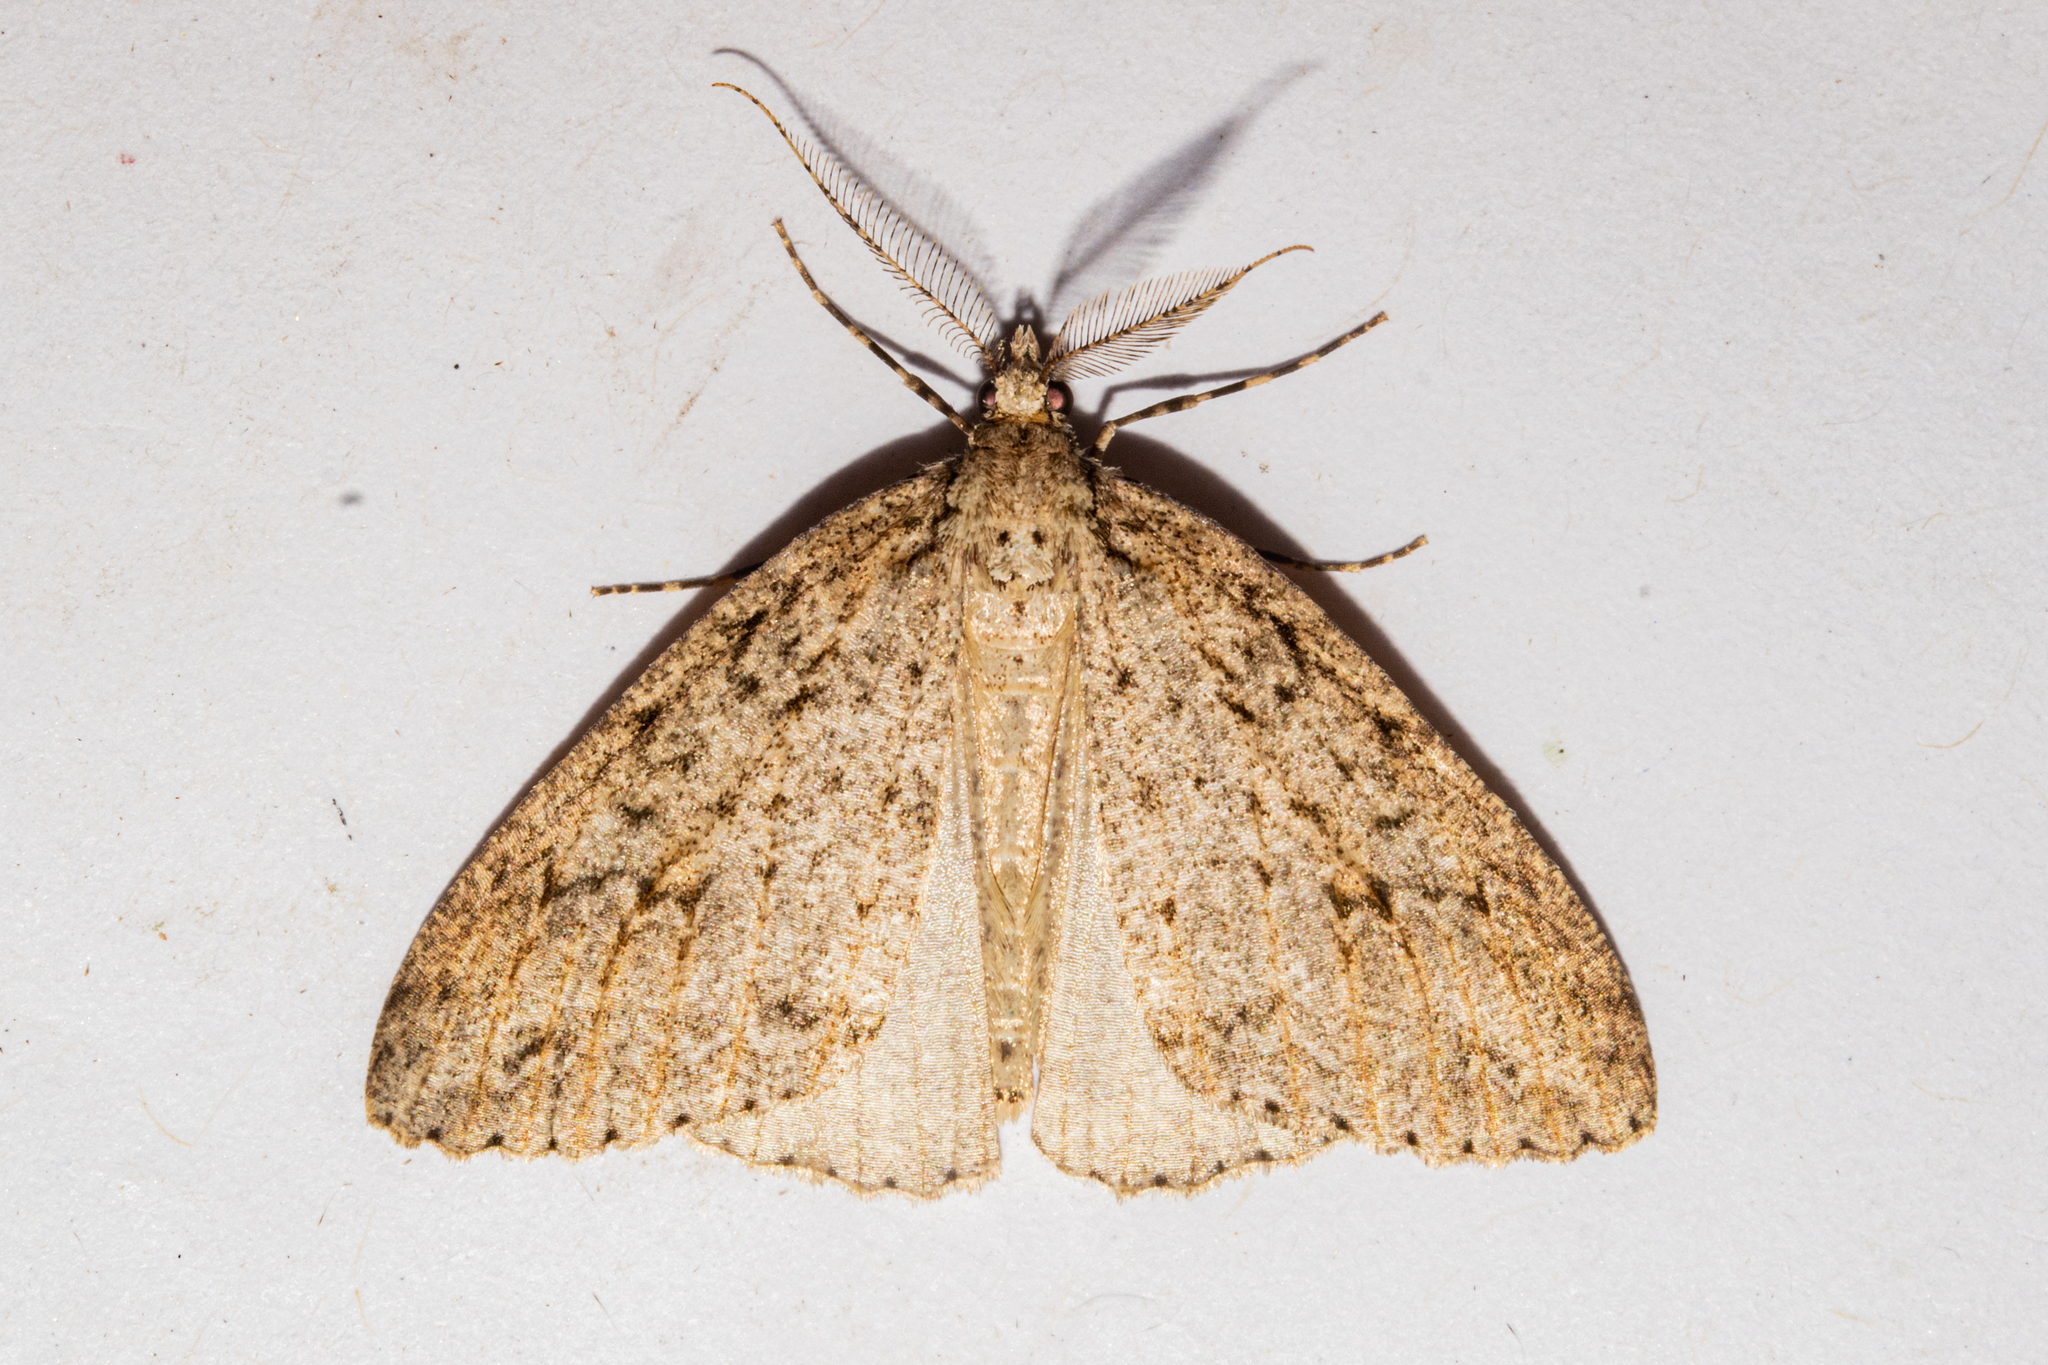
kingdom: Animalia
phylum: Arthropoda
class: Insecta
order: Lepidoptera
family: Geometridae
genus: Pseudocoremia
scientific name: Pseudocoremia rudisata
